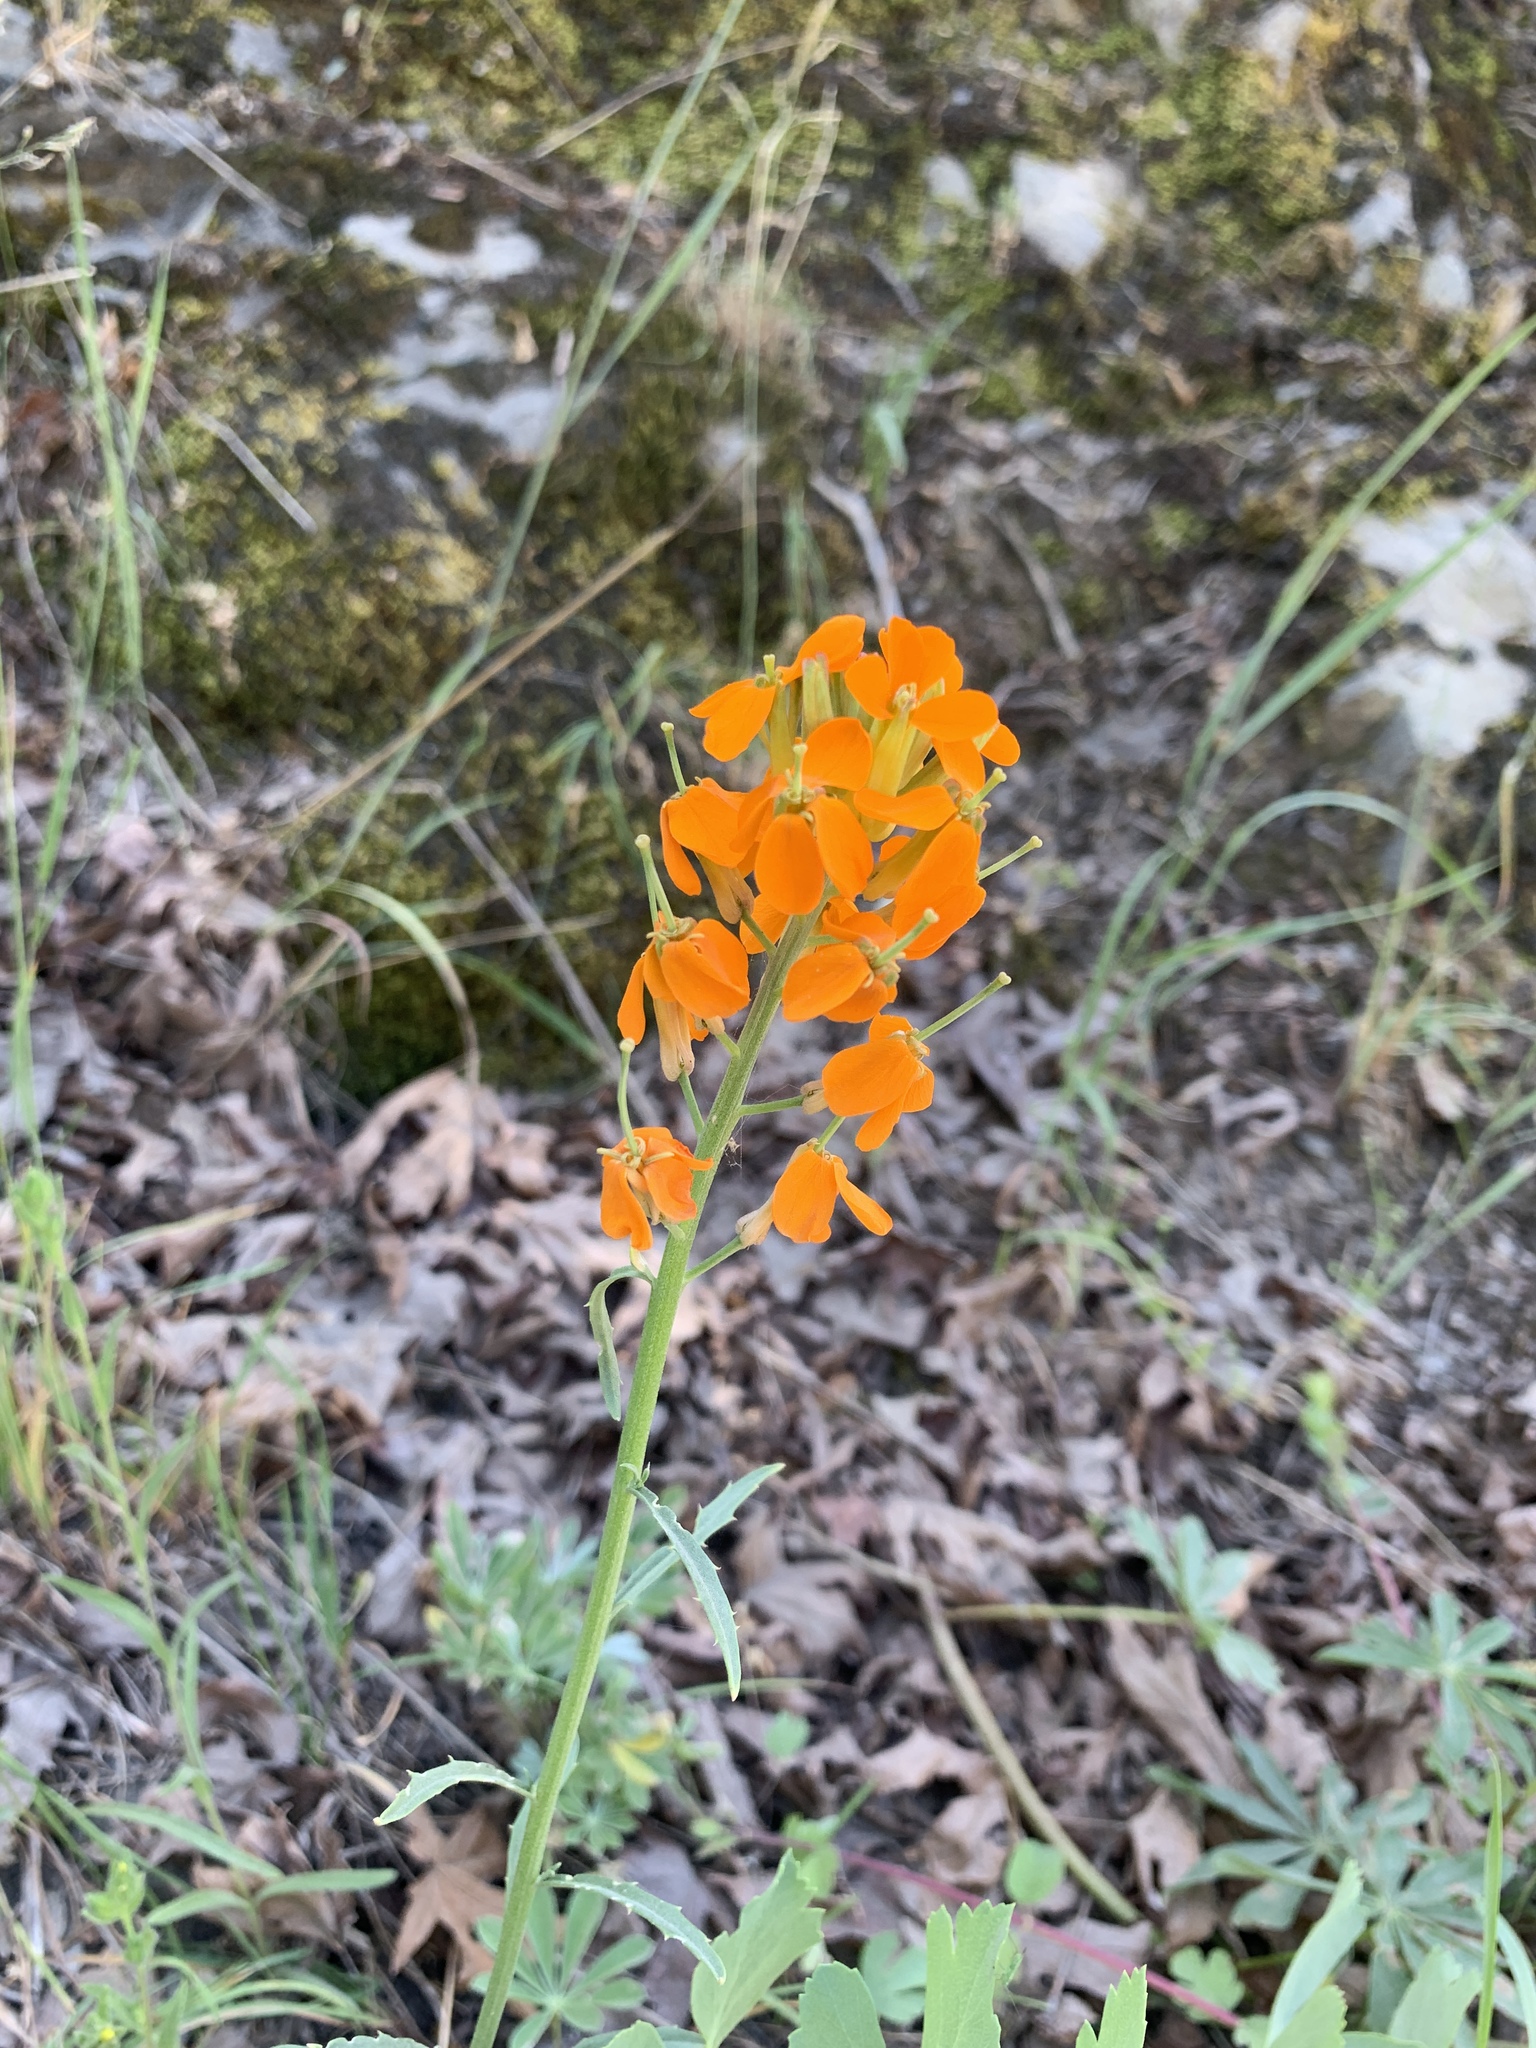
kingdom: Plantae
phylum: Tracheophyta
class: Magnoliopsida
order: Brassicales
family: Brassicaceae
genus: Erysimum
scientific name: Erysimum capitatum
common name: Western wallflower
